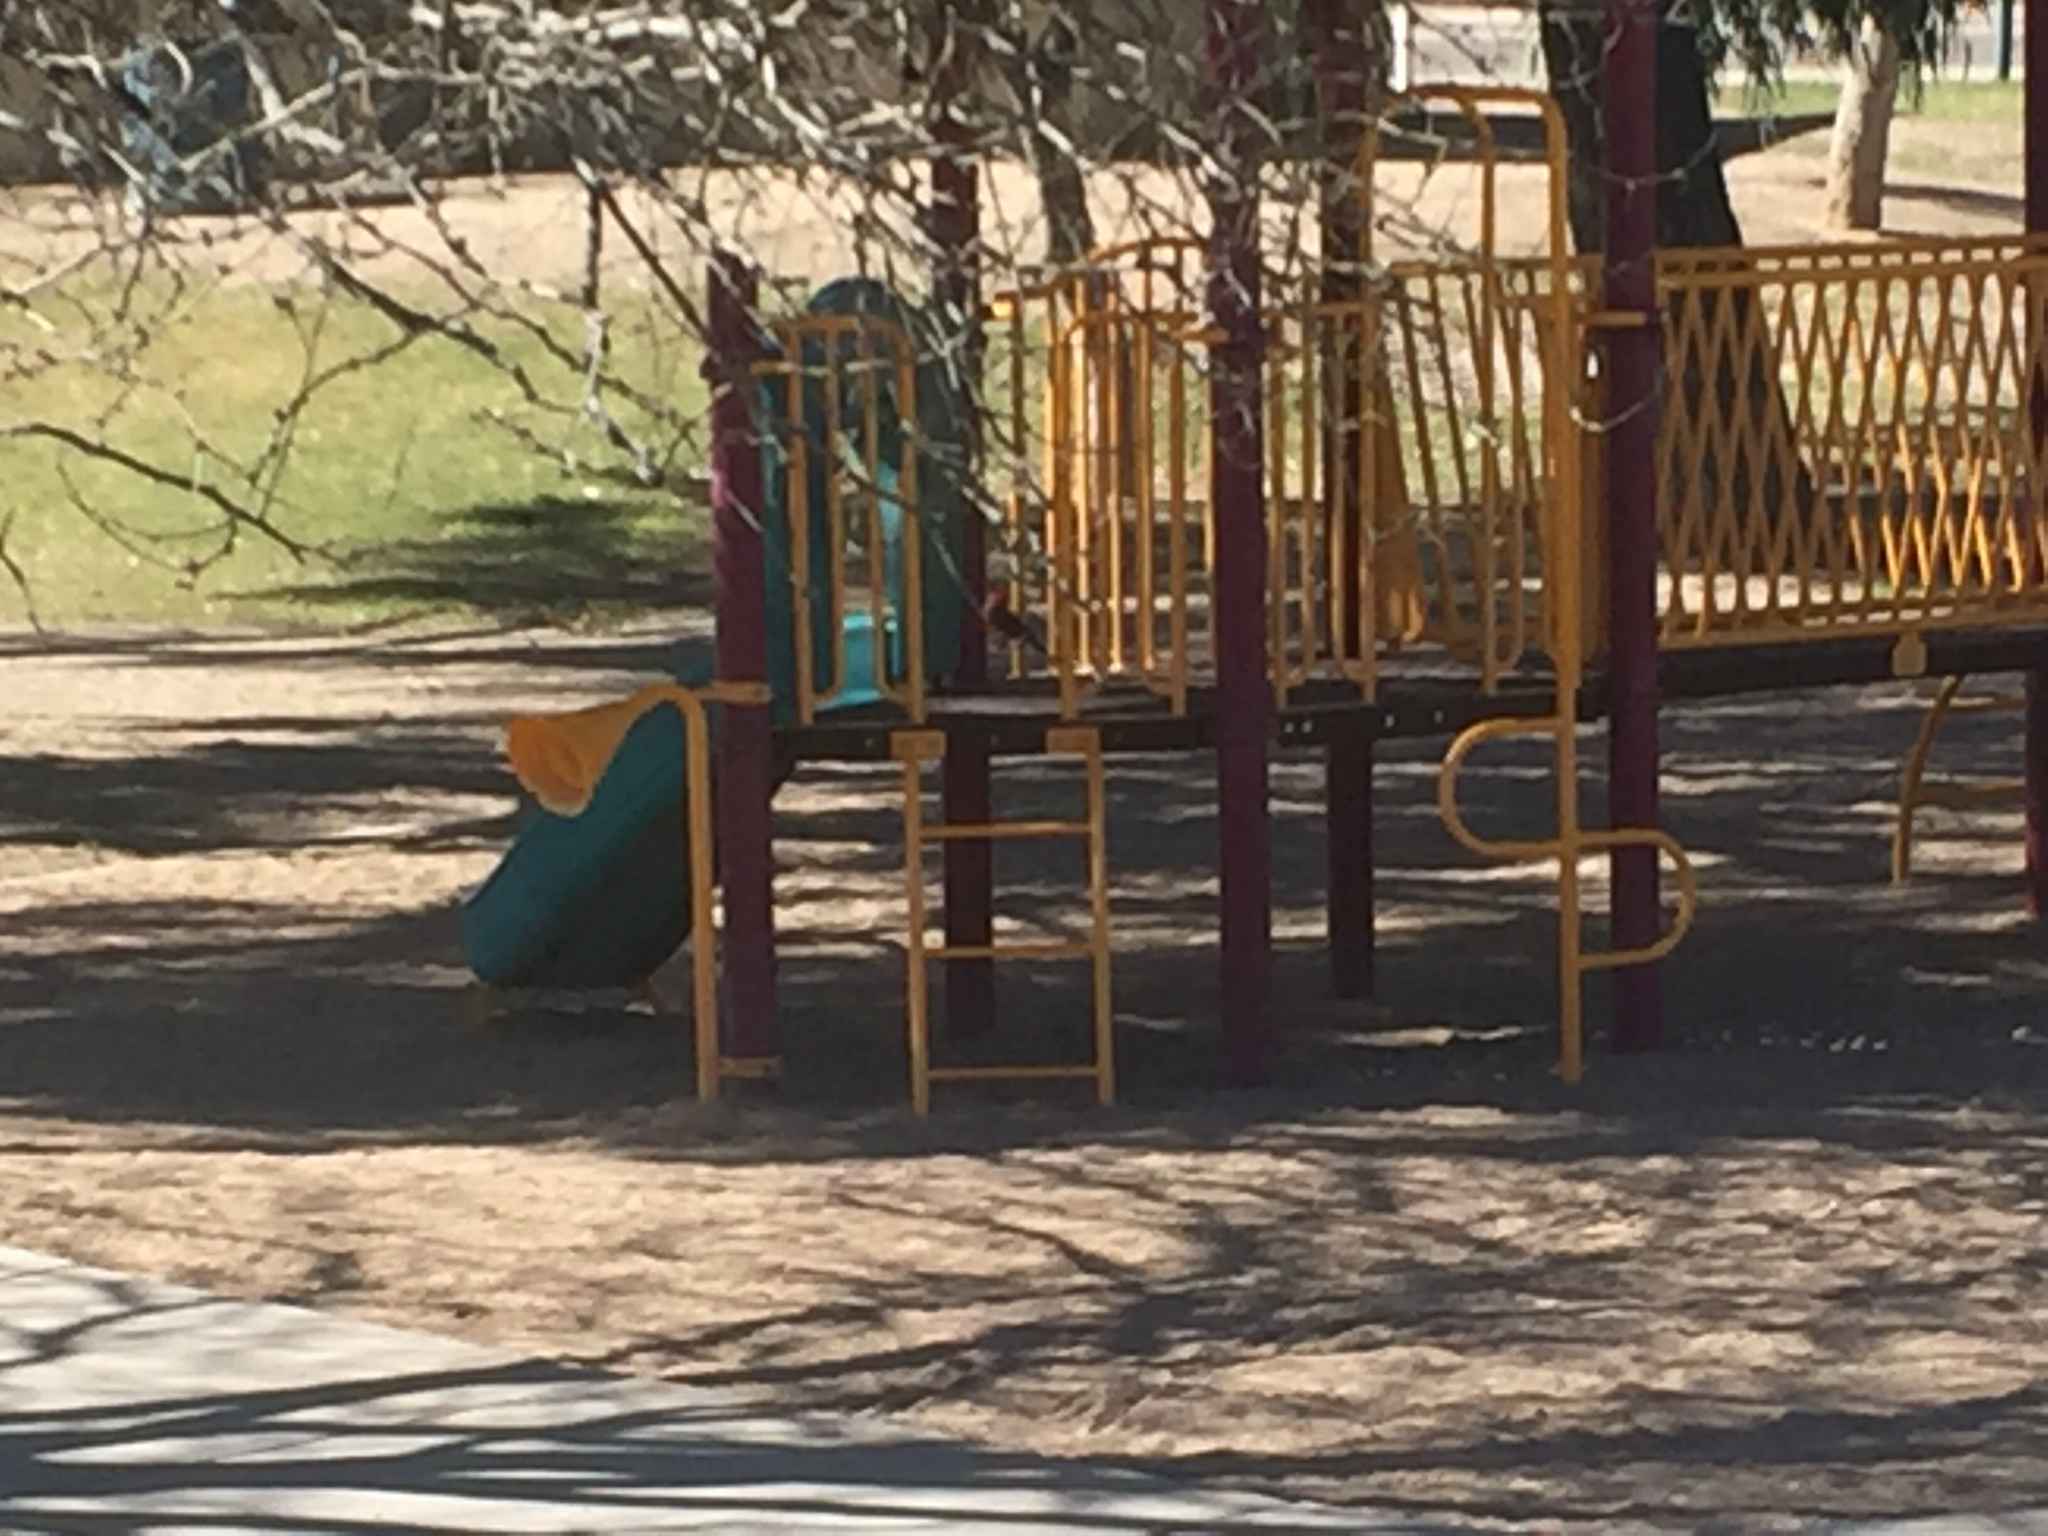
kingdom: Animalia
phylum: Chordata
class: Aves
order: Passeriformes
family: Tyrannidae
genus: Pyrocephalus
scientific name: Pyrocephalus rubinus
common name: Vermilion flycatcher
